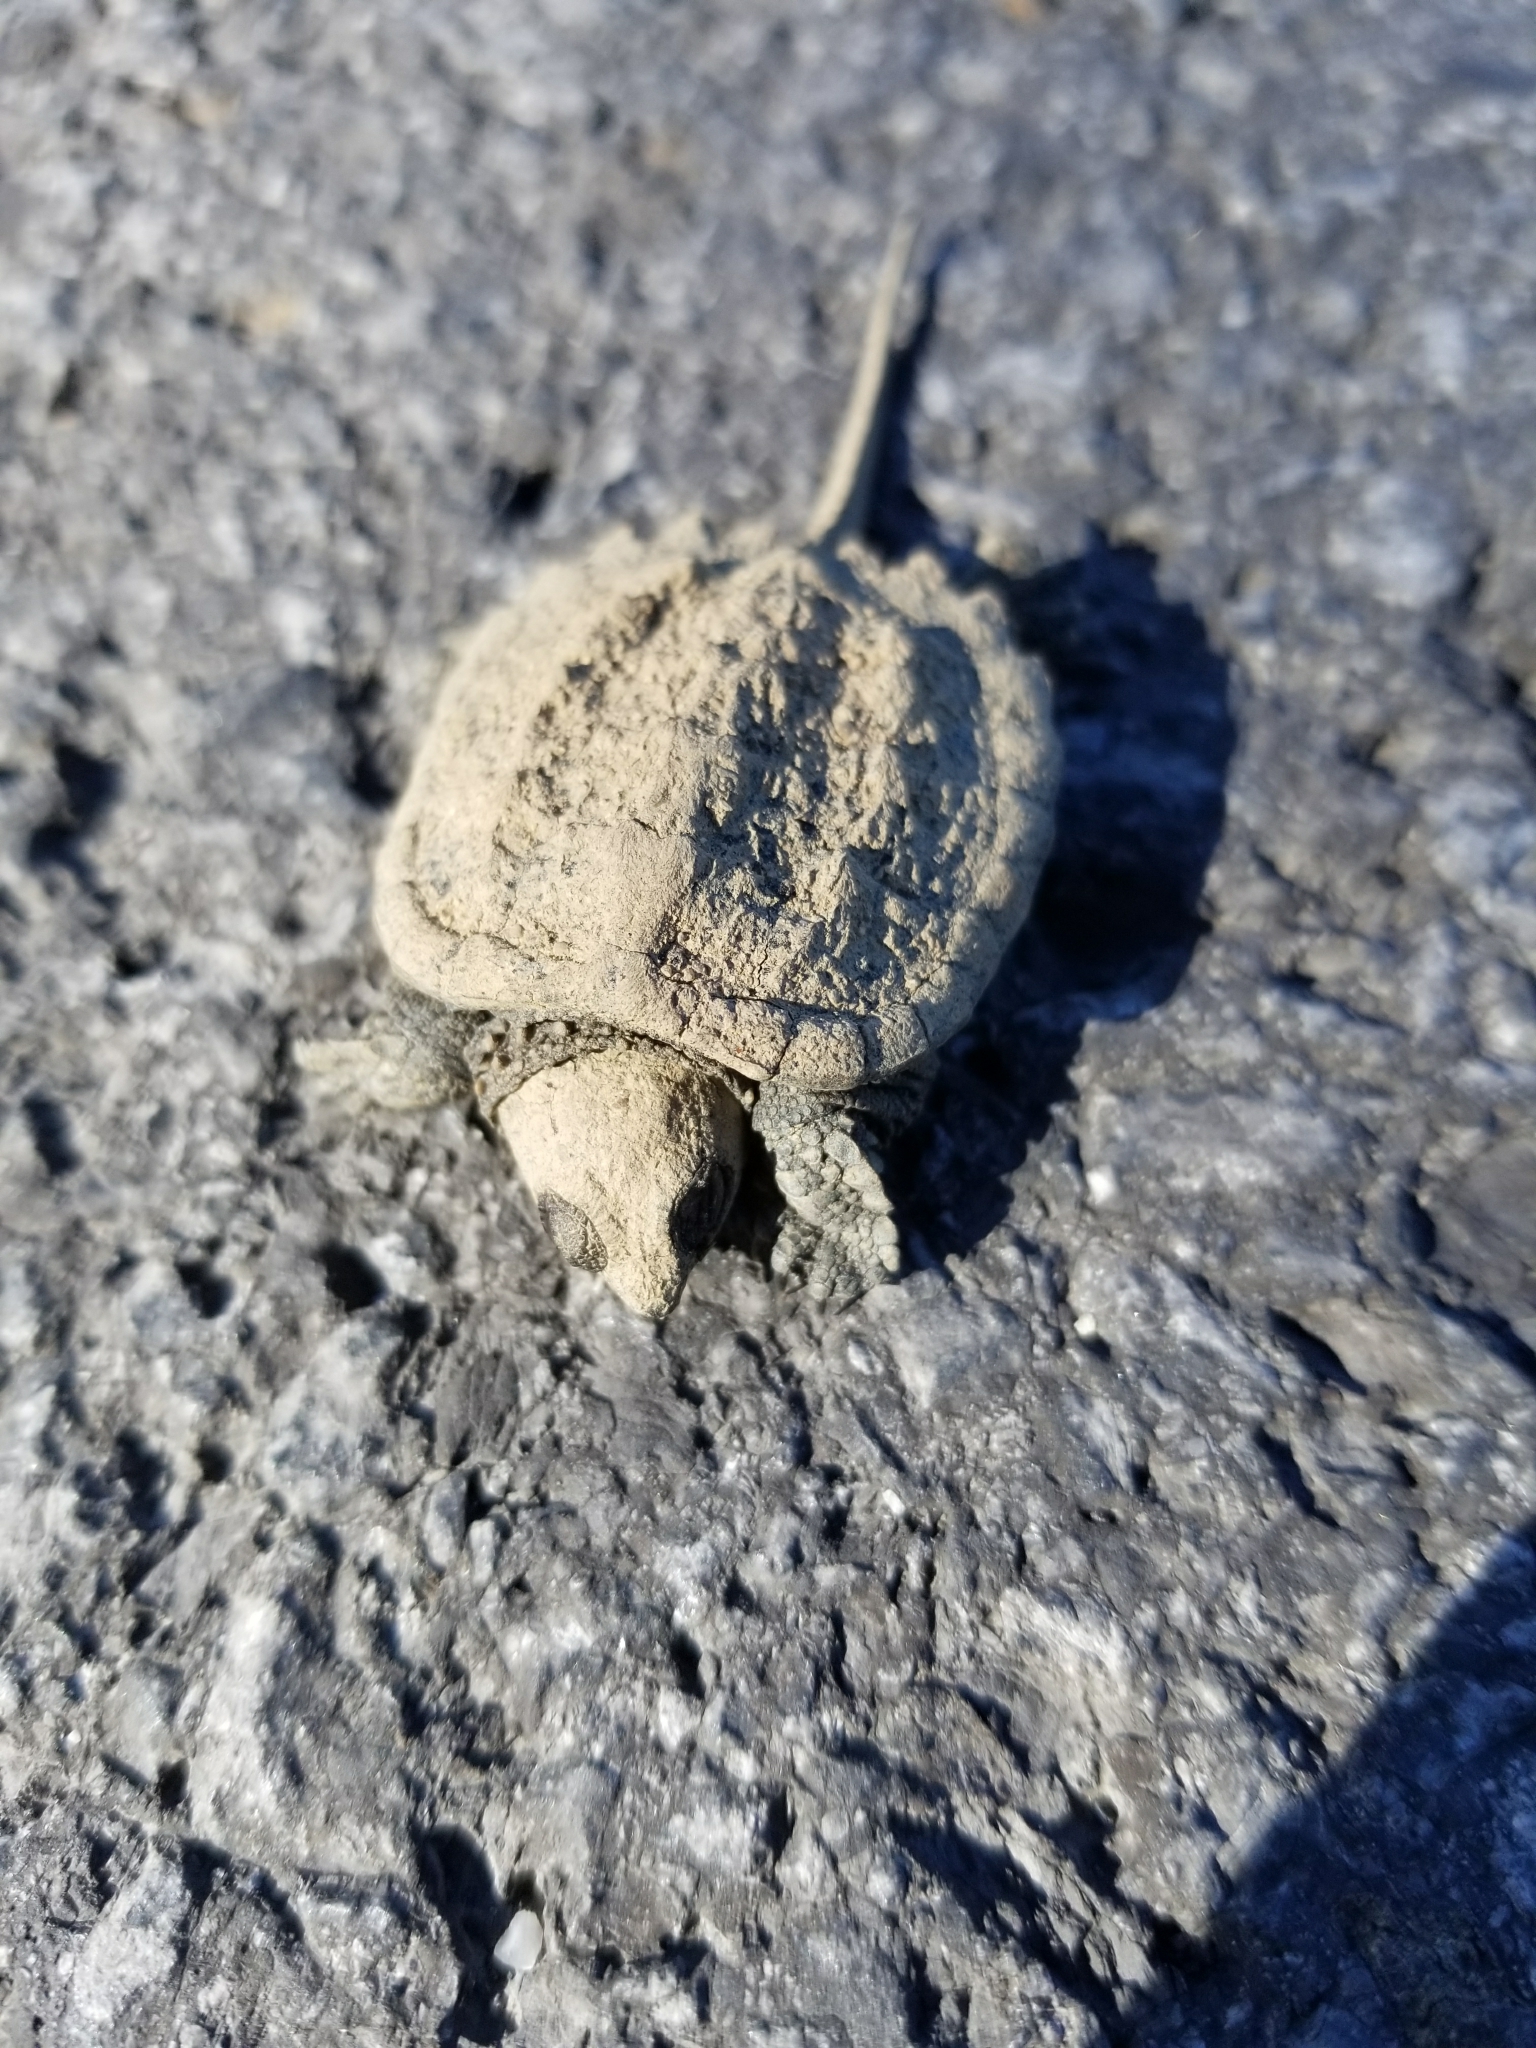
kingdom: Animalia
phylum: Chordata
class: Testudines
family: Chelydridae
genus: Chelydra
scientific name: Chelydra serpentina
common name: Common snapping turtle
